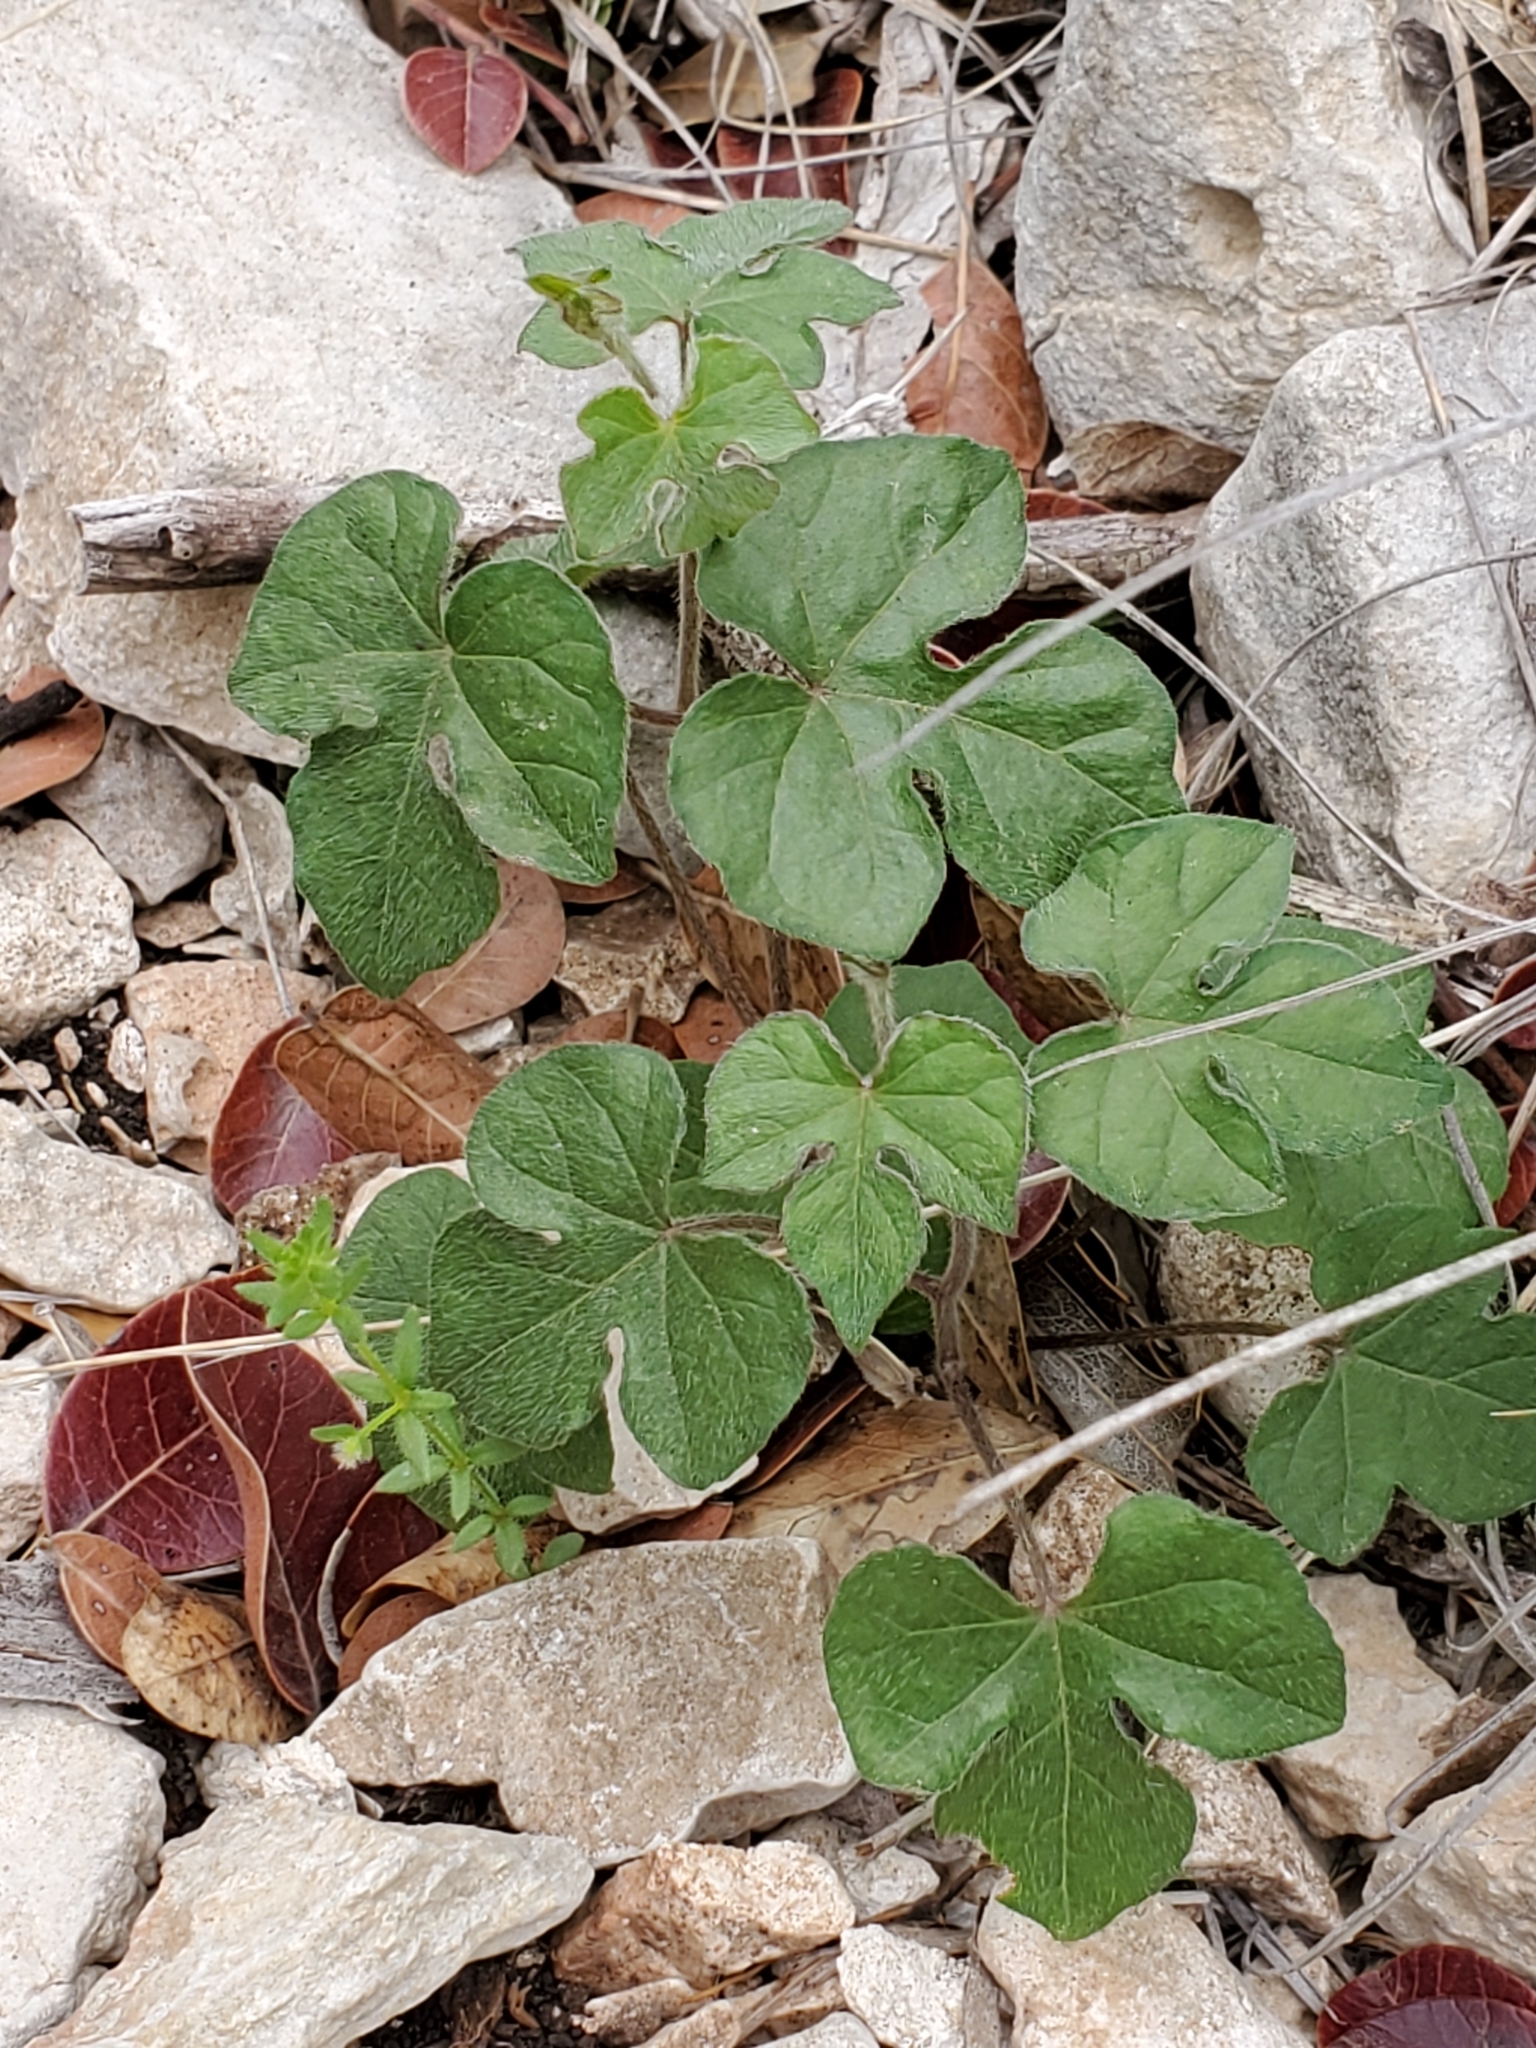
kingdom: Plantae
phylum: Tracheophyta
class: Magnoliopsida
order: Solanales
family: Convolvulaceae
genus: Ipomoea
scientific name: Ipomoea lindheimeri
